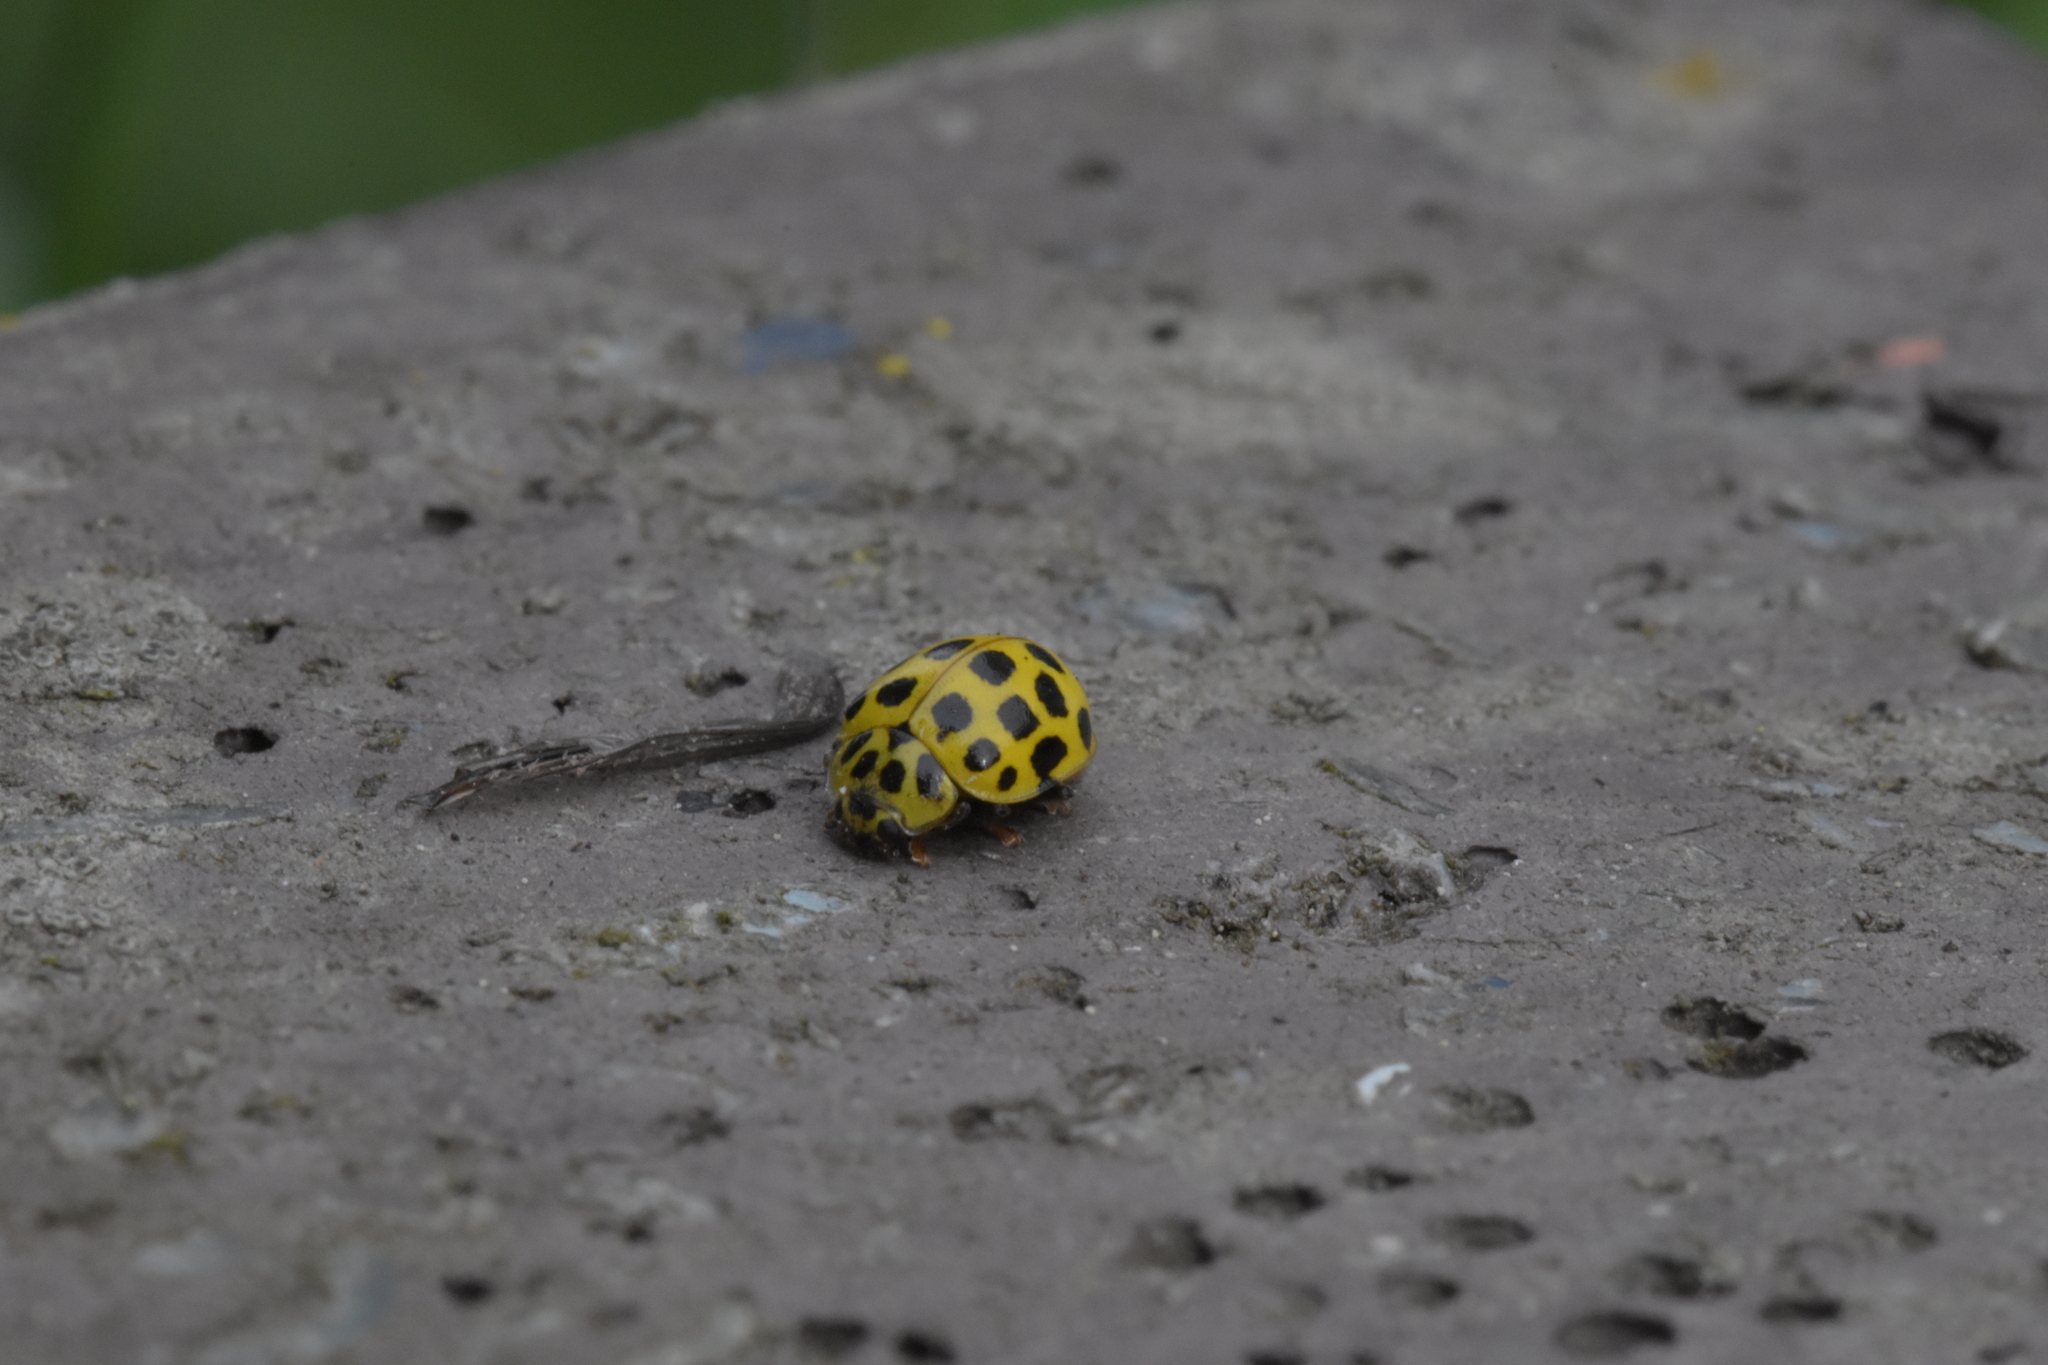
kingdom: Animalia
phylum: Arthropoda
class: Insecta
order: Coleoptera
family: Coccinellidae
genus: Psyllobora
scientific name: Psyllobora vigintiduopunctata
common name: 22-spot ladybird
